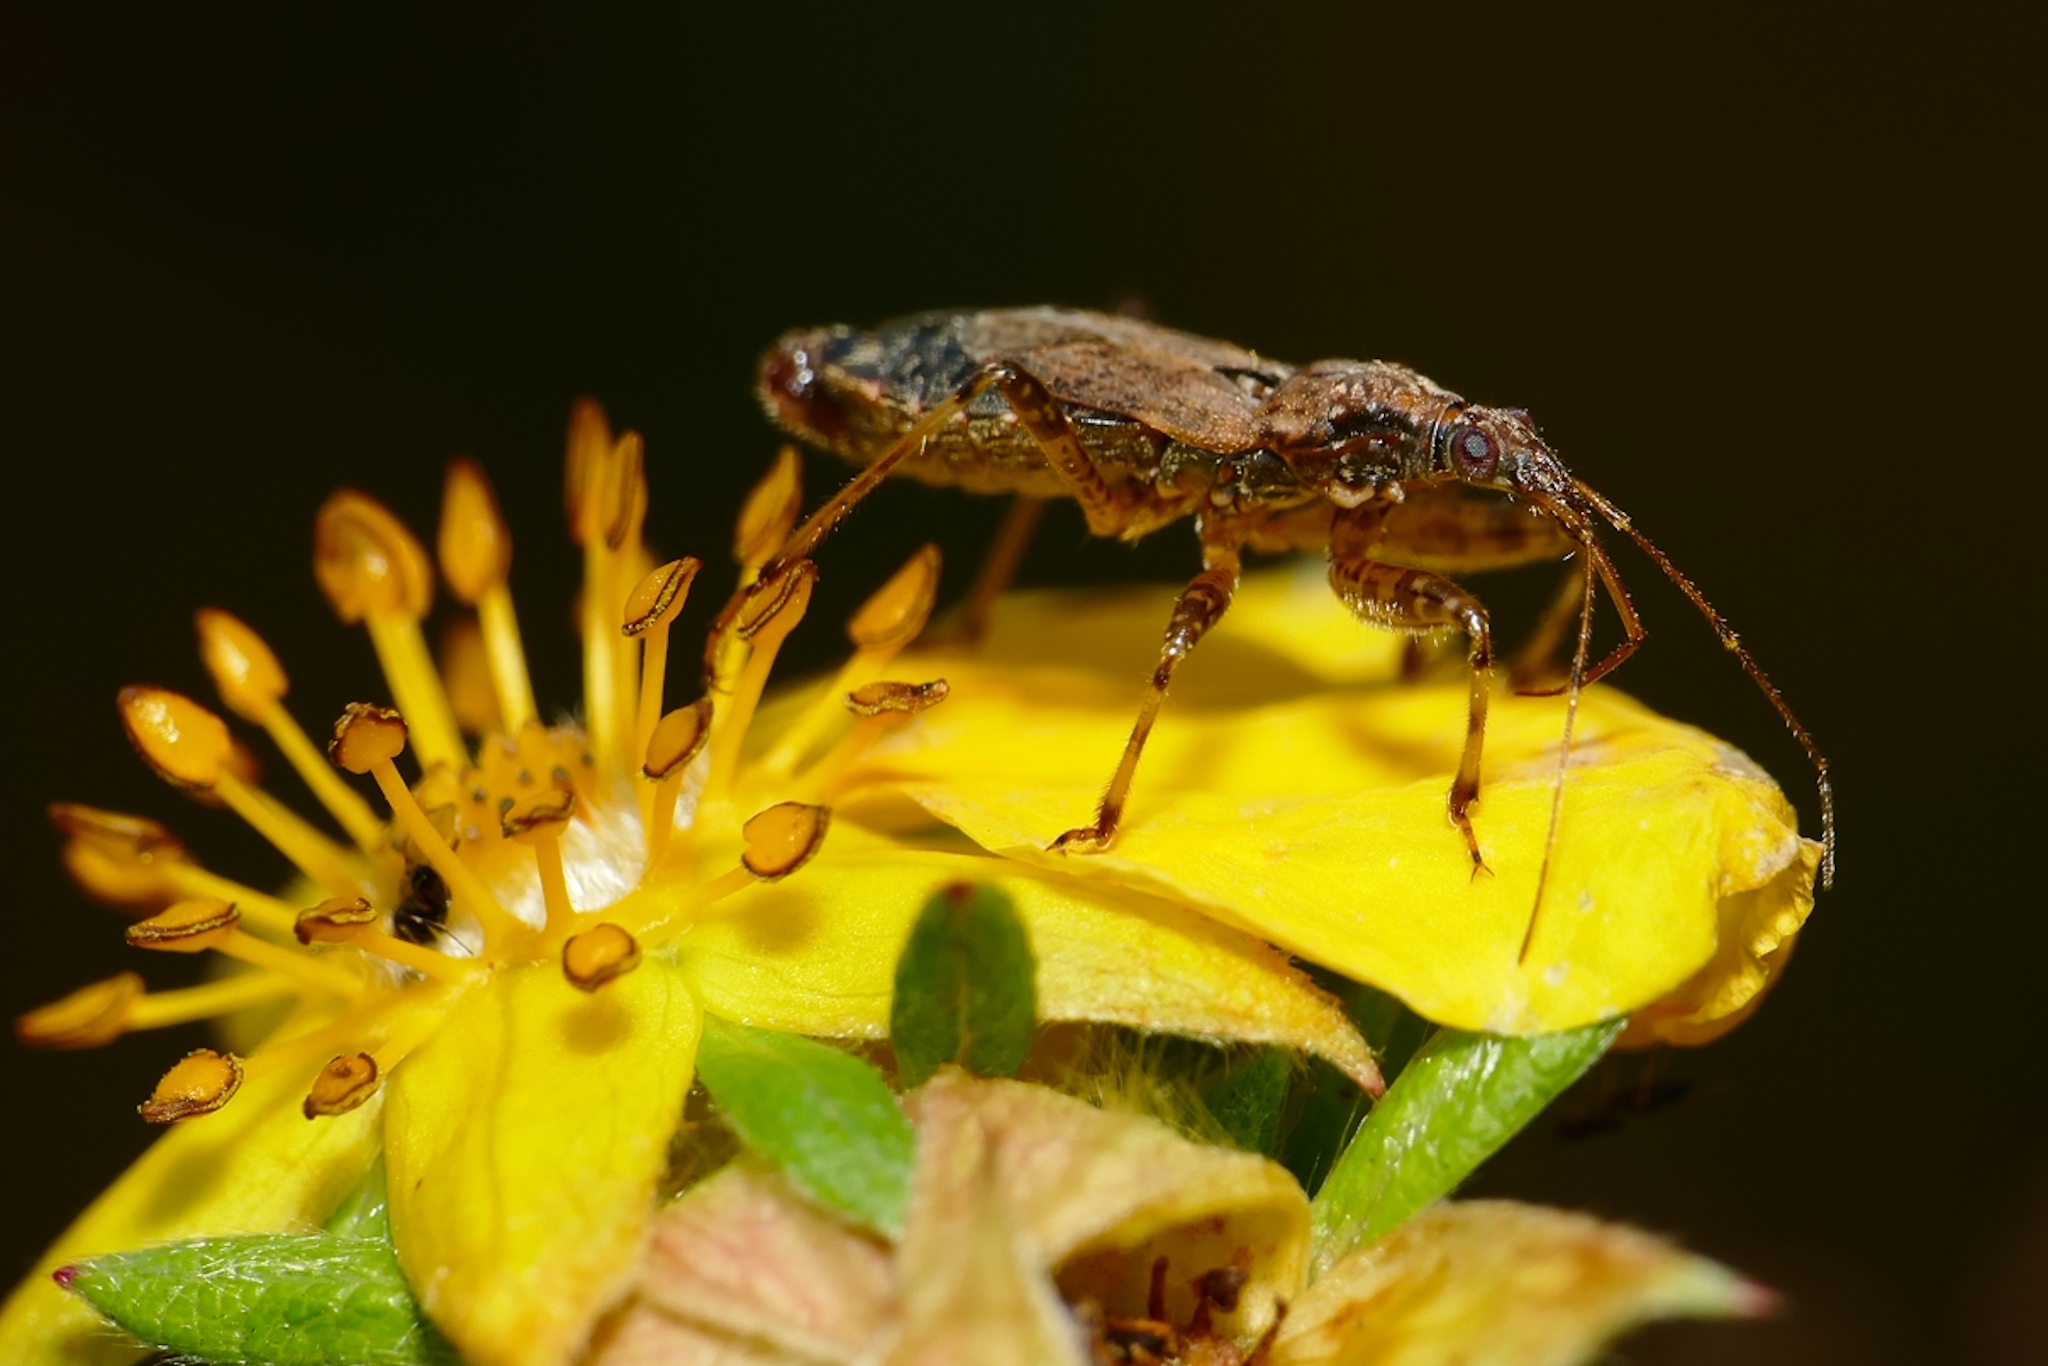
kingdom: Animalia
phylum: Arthropoda
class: Insecta
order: Hemiptera
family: Nabidae
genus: Himacerus
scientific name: Himacerus mirmicoides
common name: Ant damsel bug
